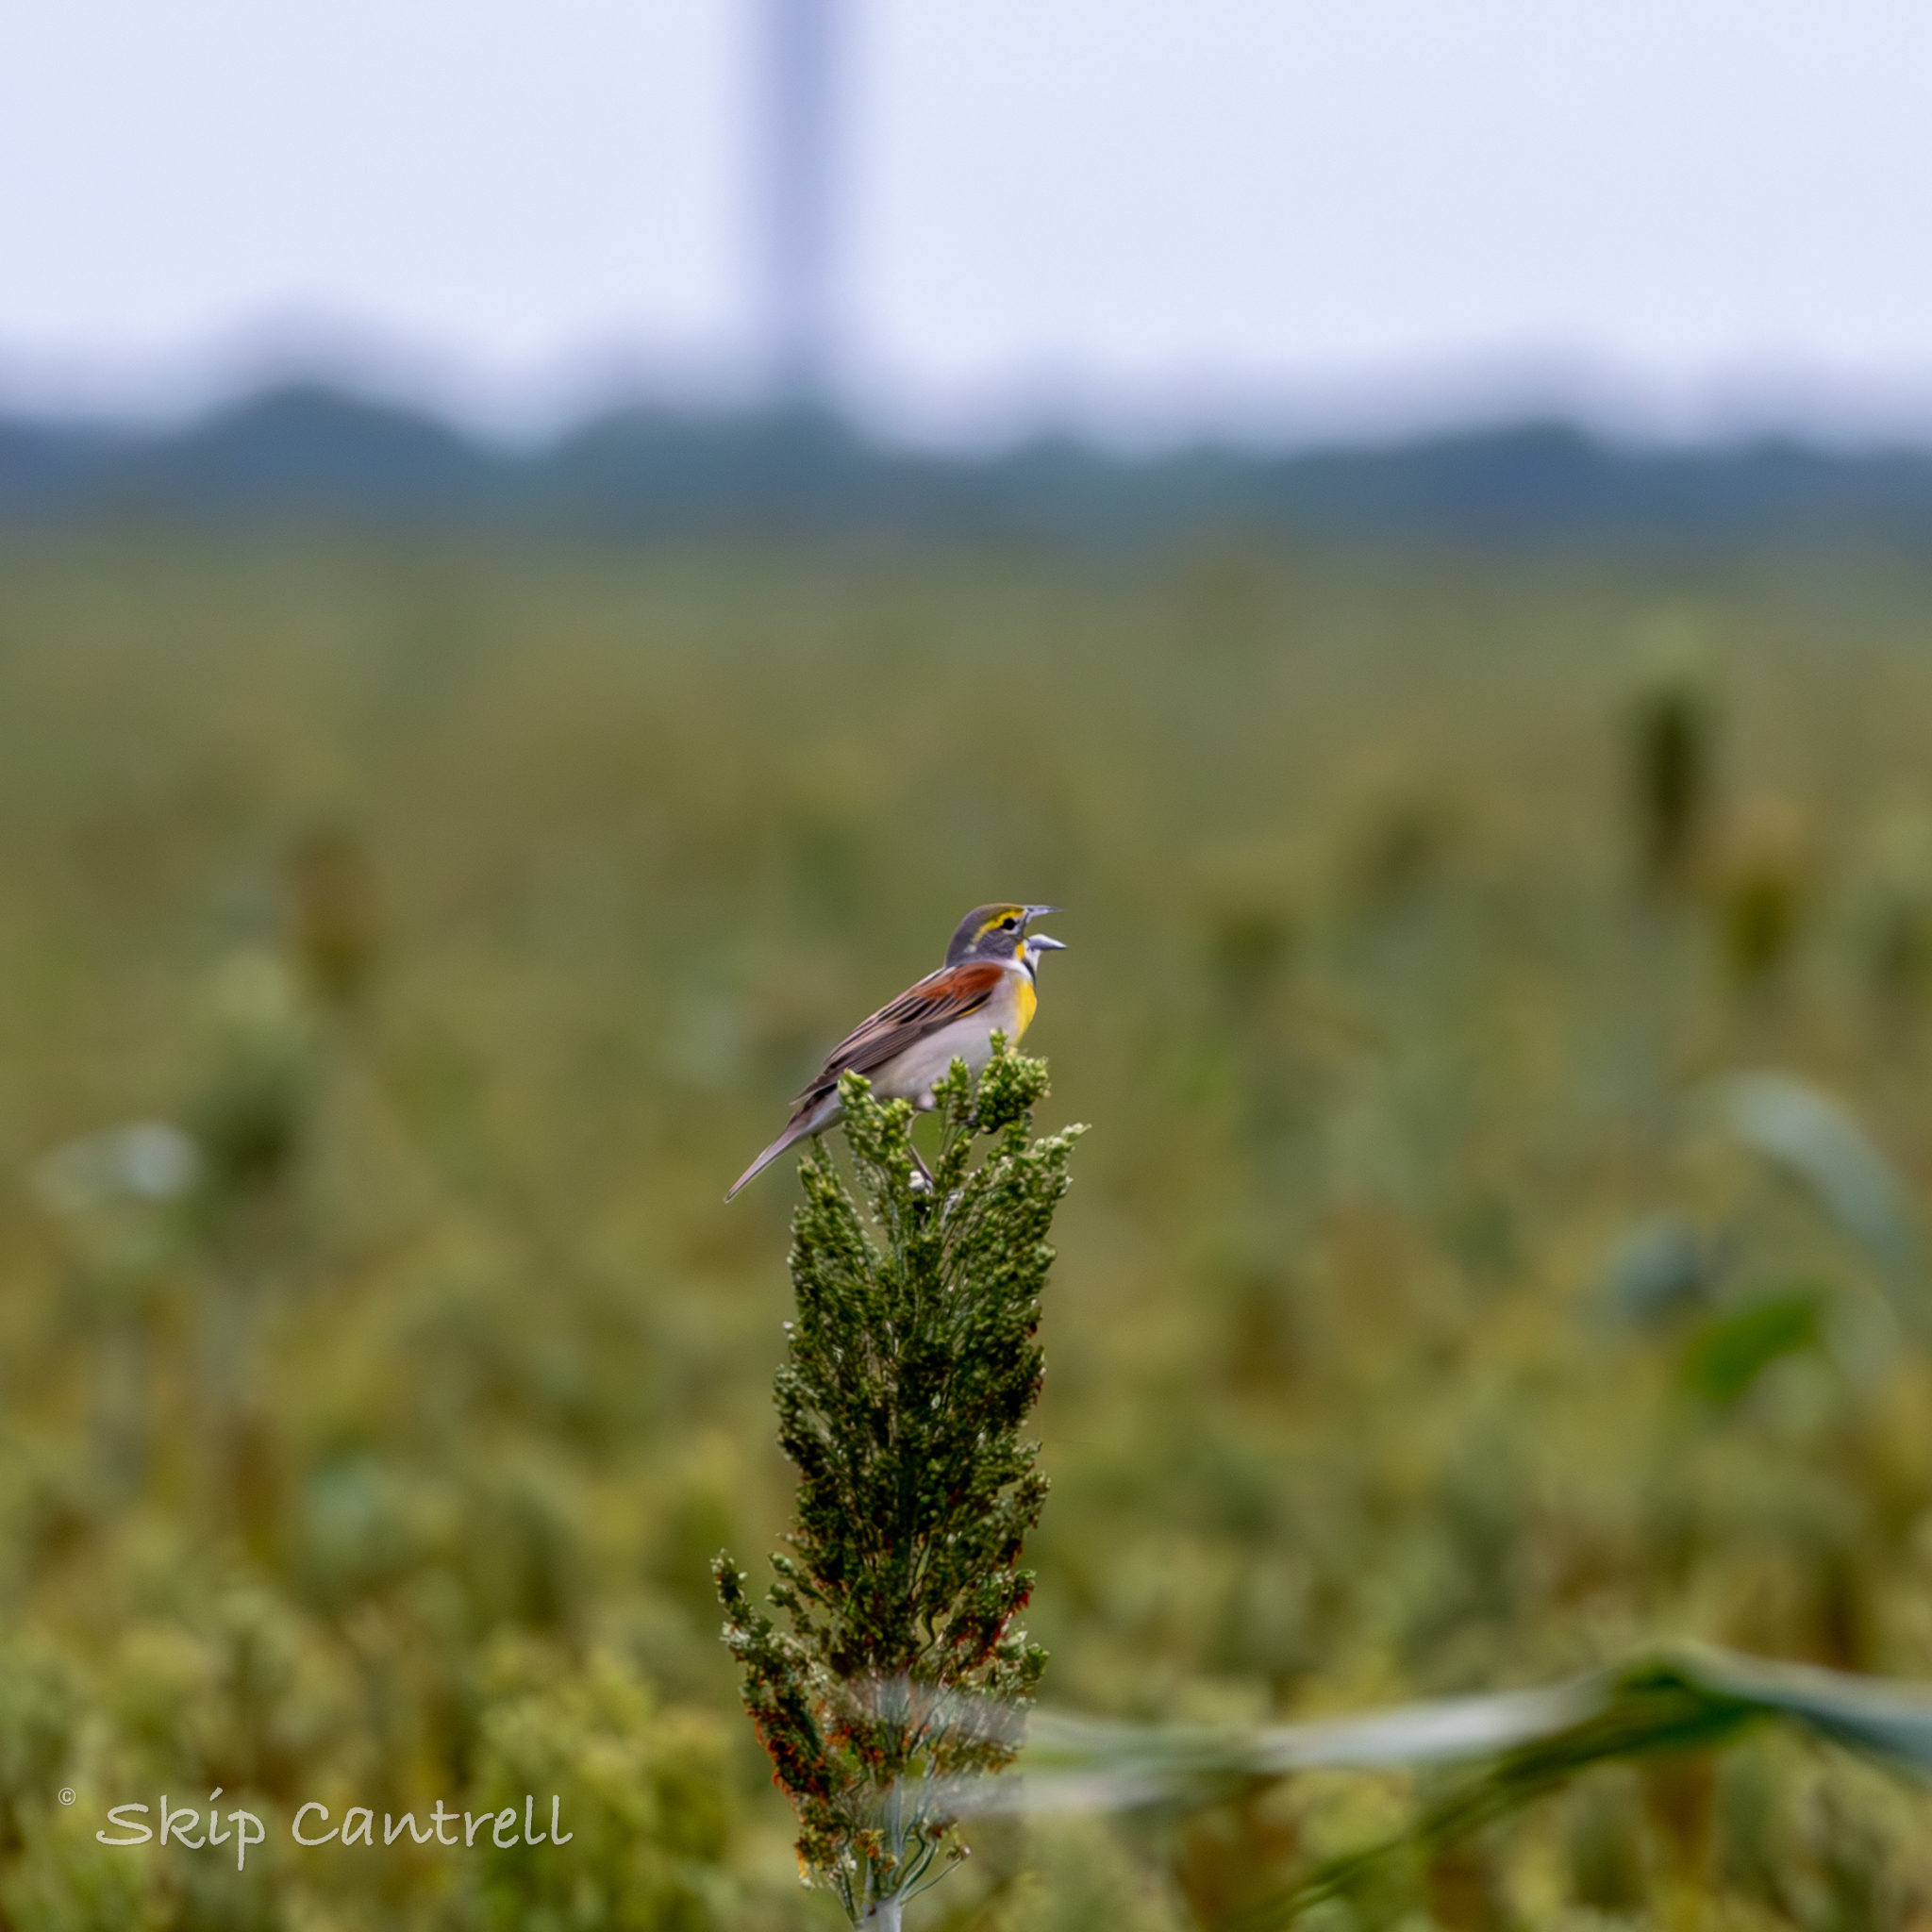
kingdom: Animalia
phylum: Chordata
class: Aves
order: Passeriformes
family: Cardinalidae
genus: Spiza
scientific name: Spiza americana
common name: Dickcissel
